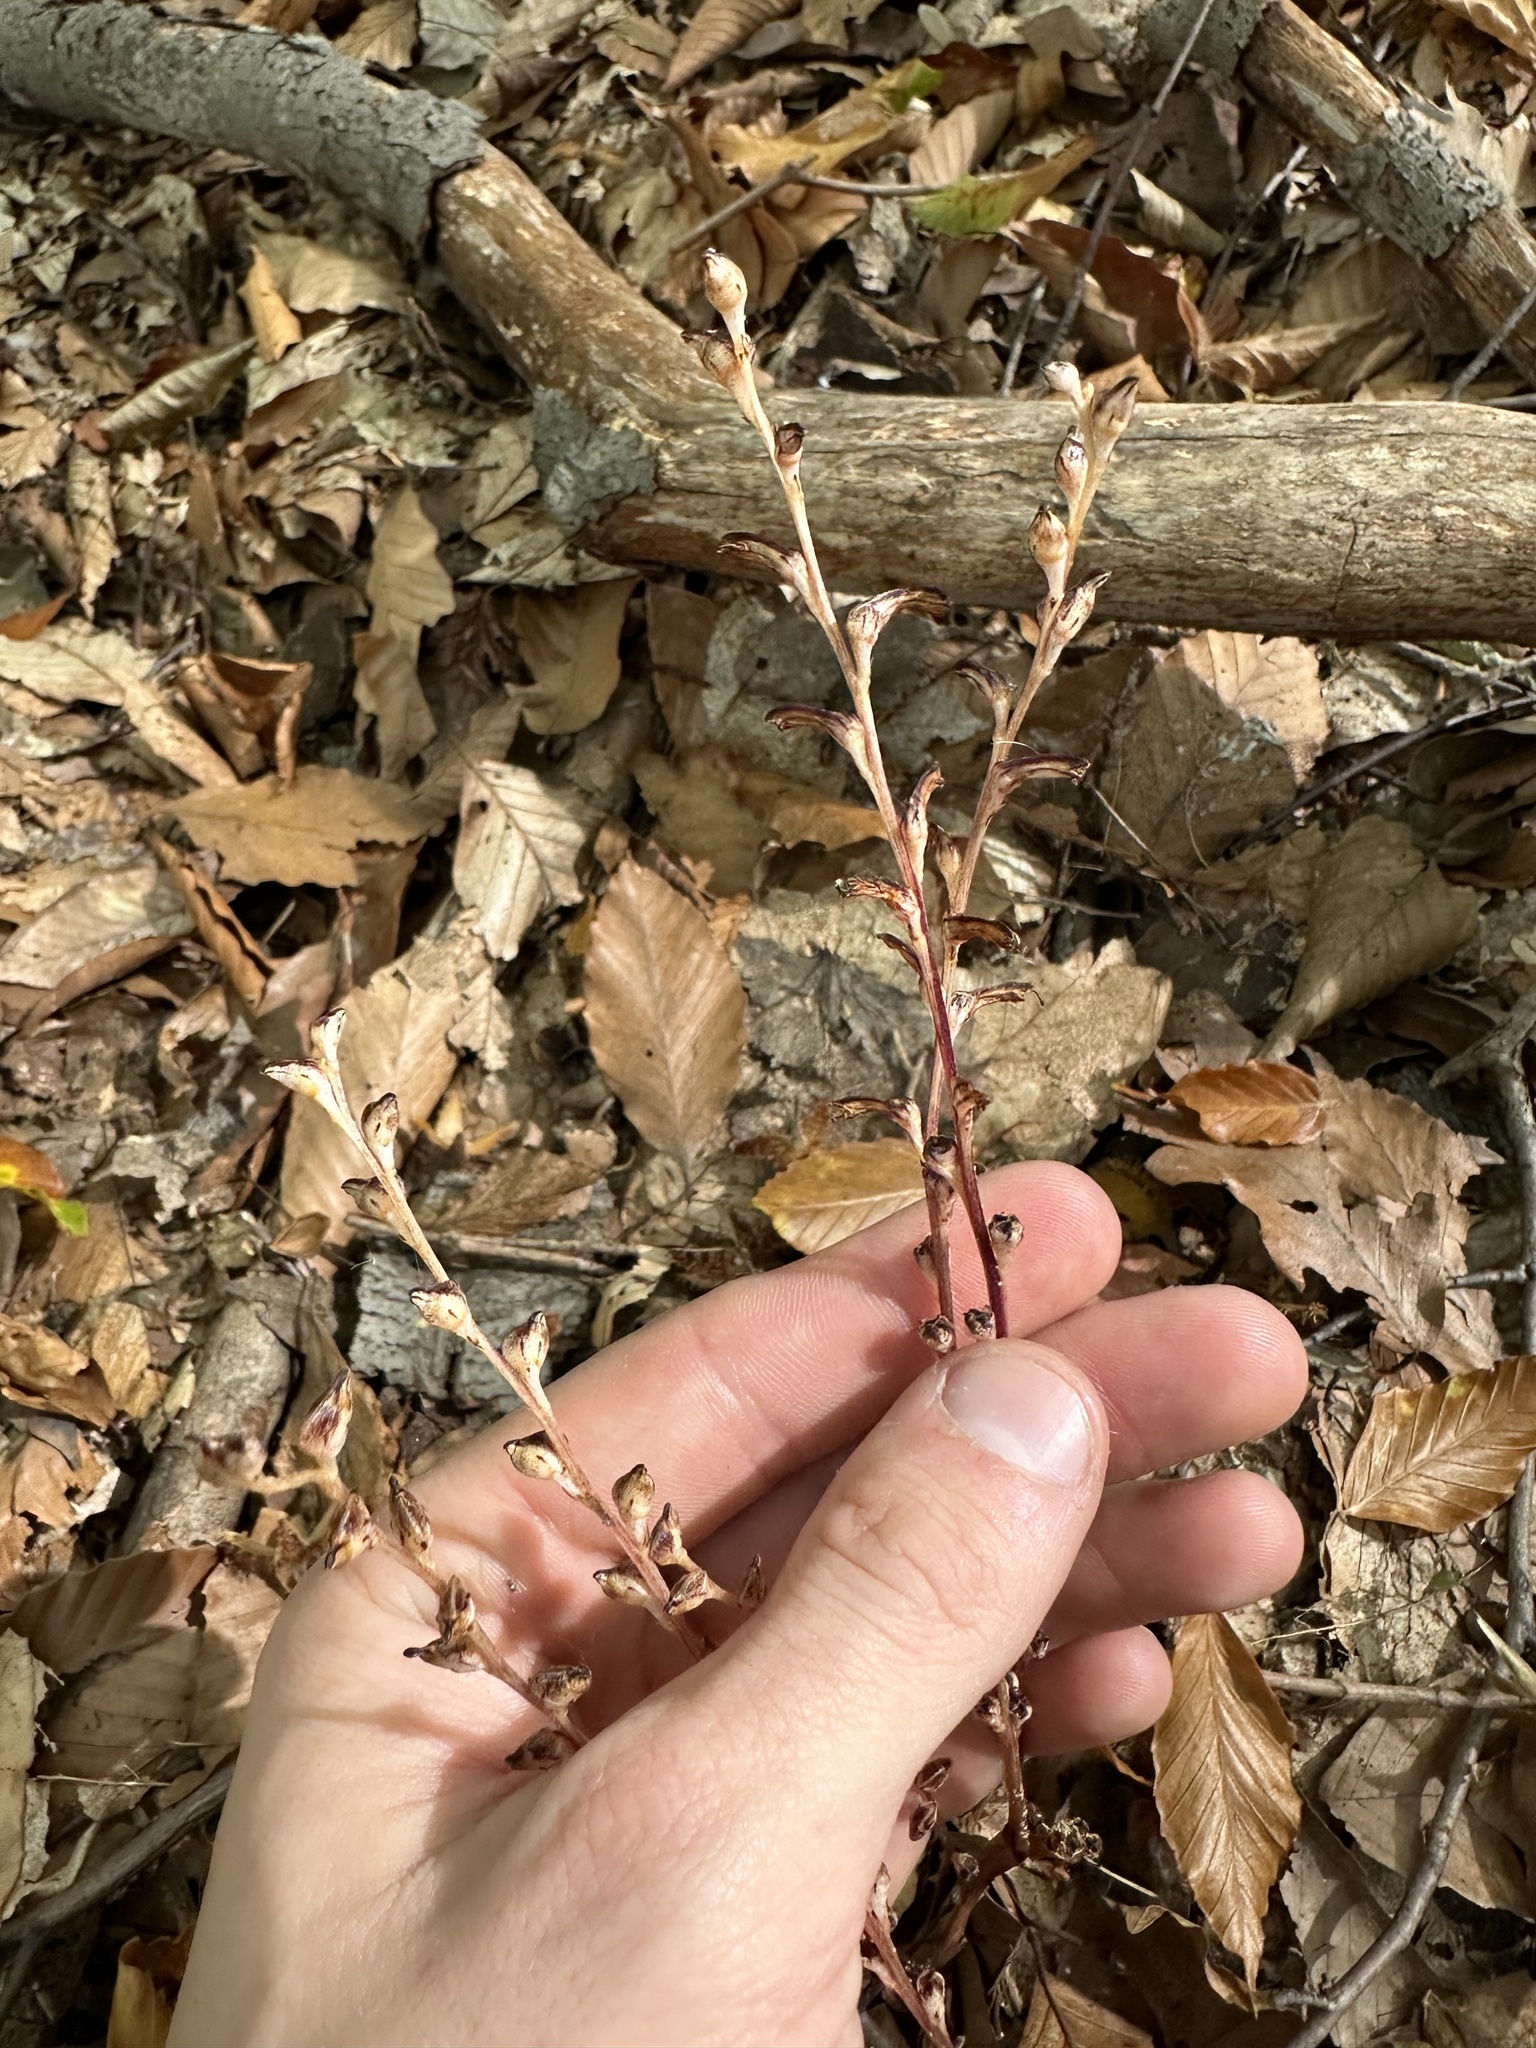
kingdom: Plantae
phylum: Tracheophyta
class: Magnoliopsida
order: Lamiales
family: Orobanchaceae
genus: Epifagus
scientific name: Epifagus virginiana
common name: Beechdrops
